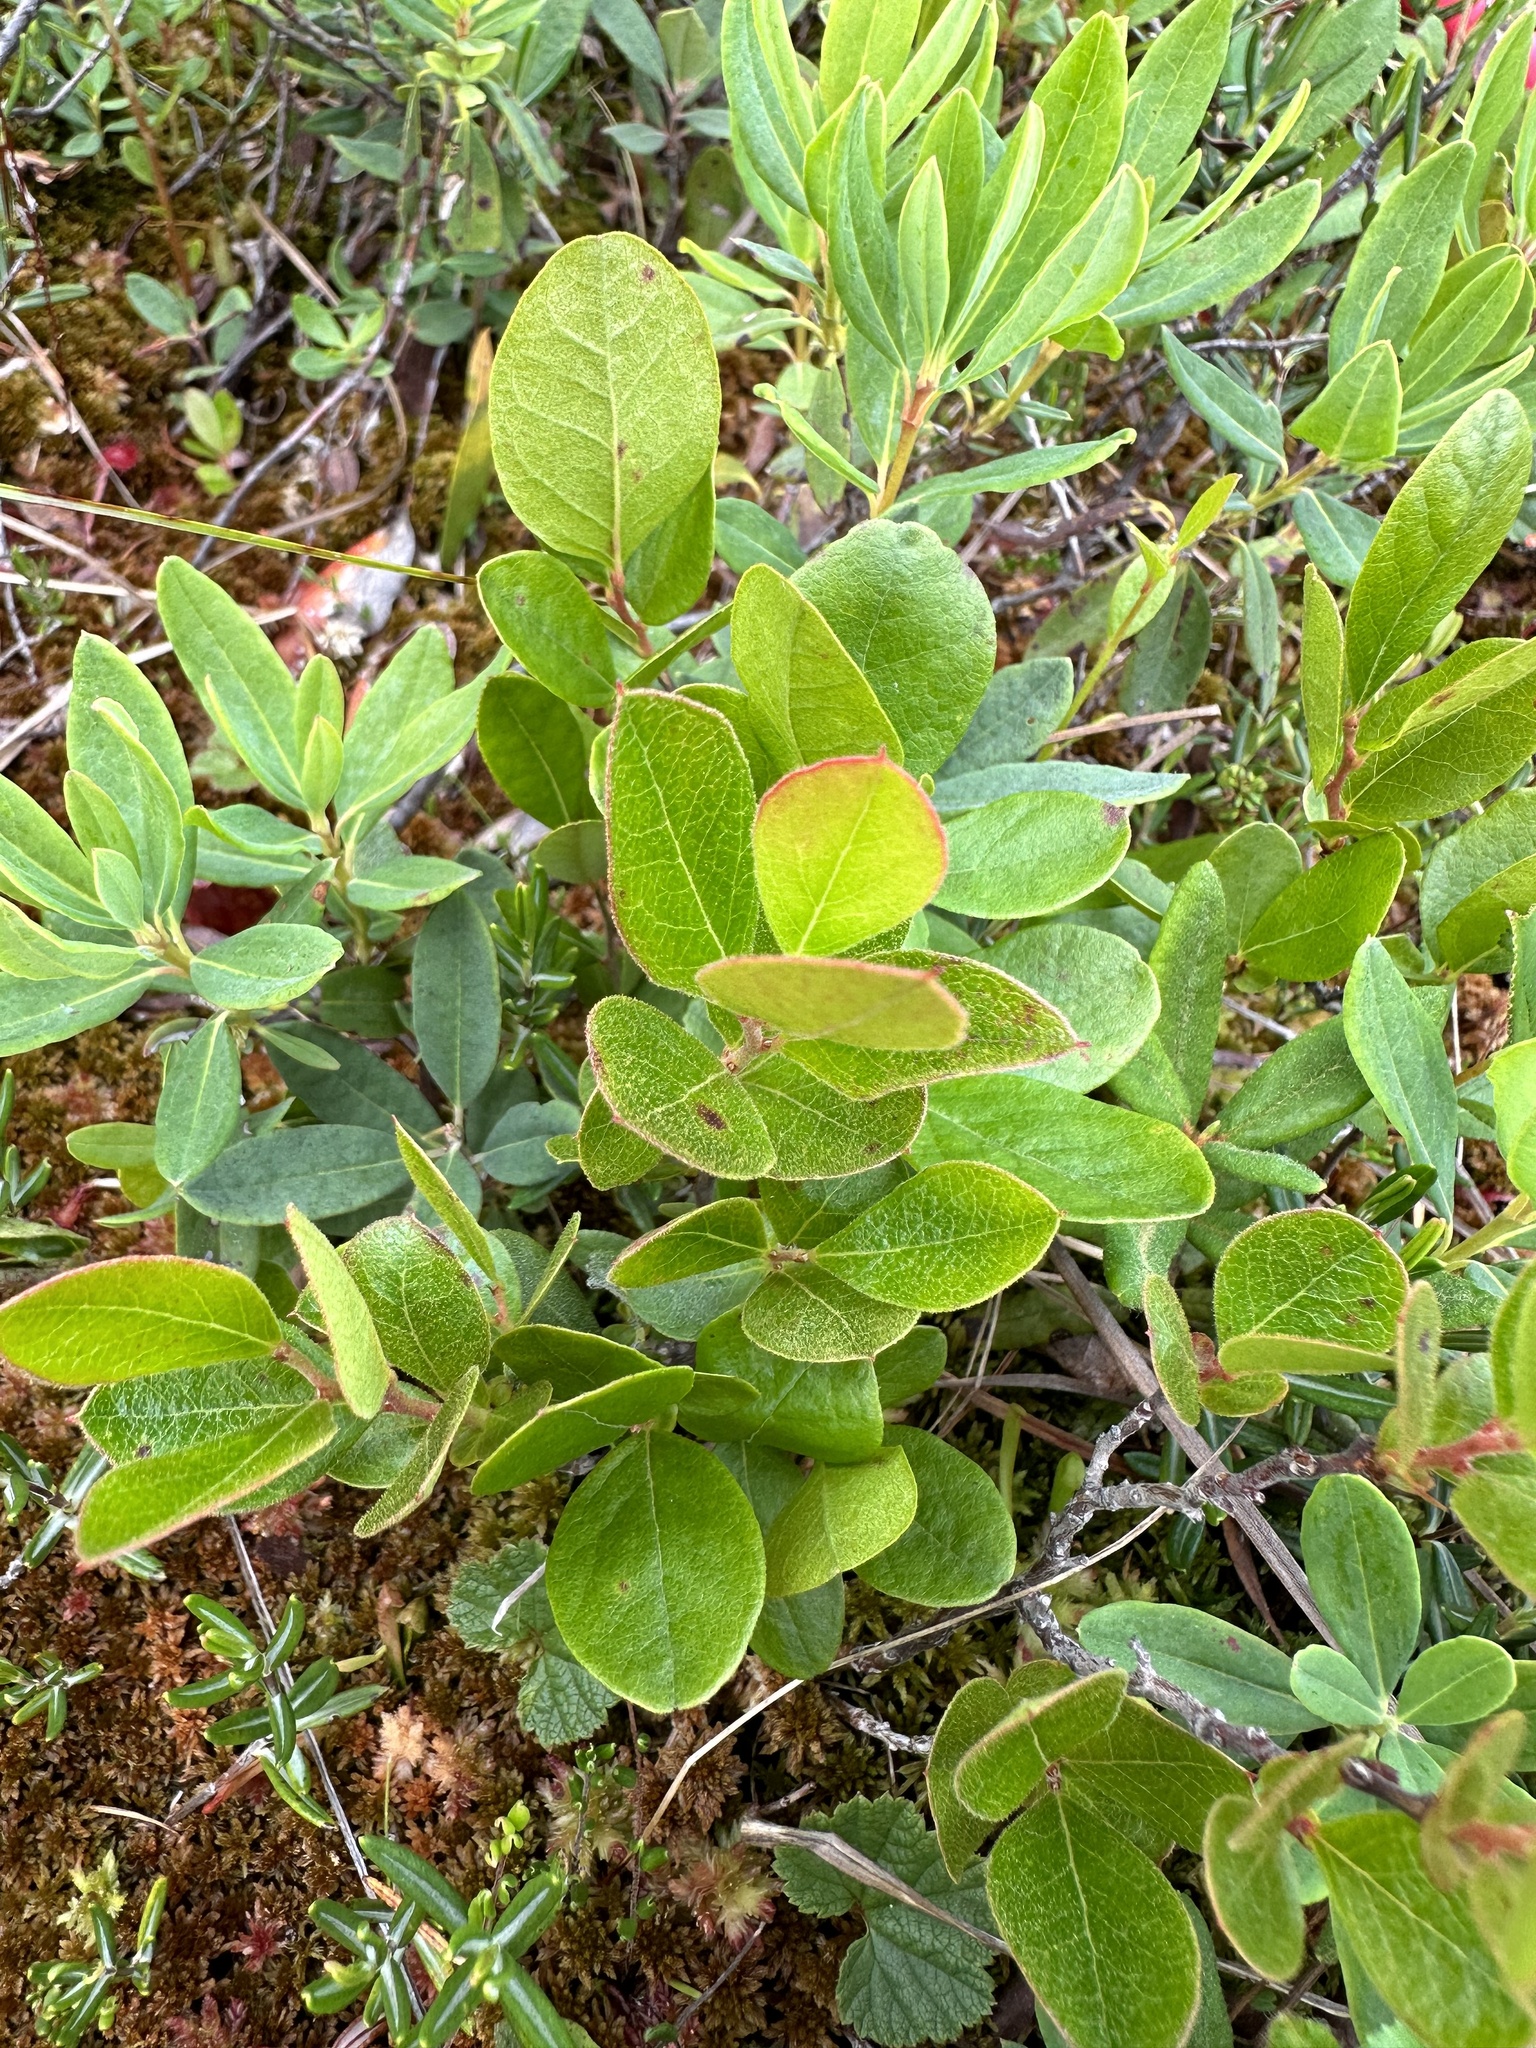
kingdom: Plantae
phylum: Tracheophyta
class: Magnoliopsida
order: Ericales
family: Ericaceae
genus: Gaylussacia
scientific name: Gaylussacia bigeloviana
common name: Bog huckleberry
